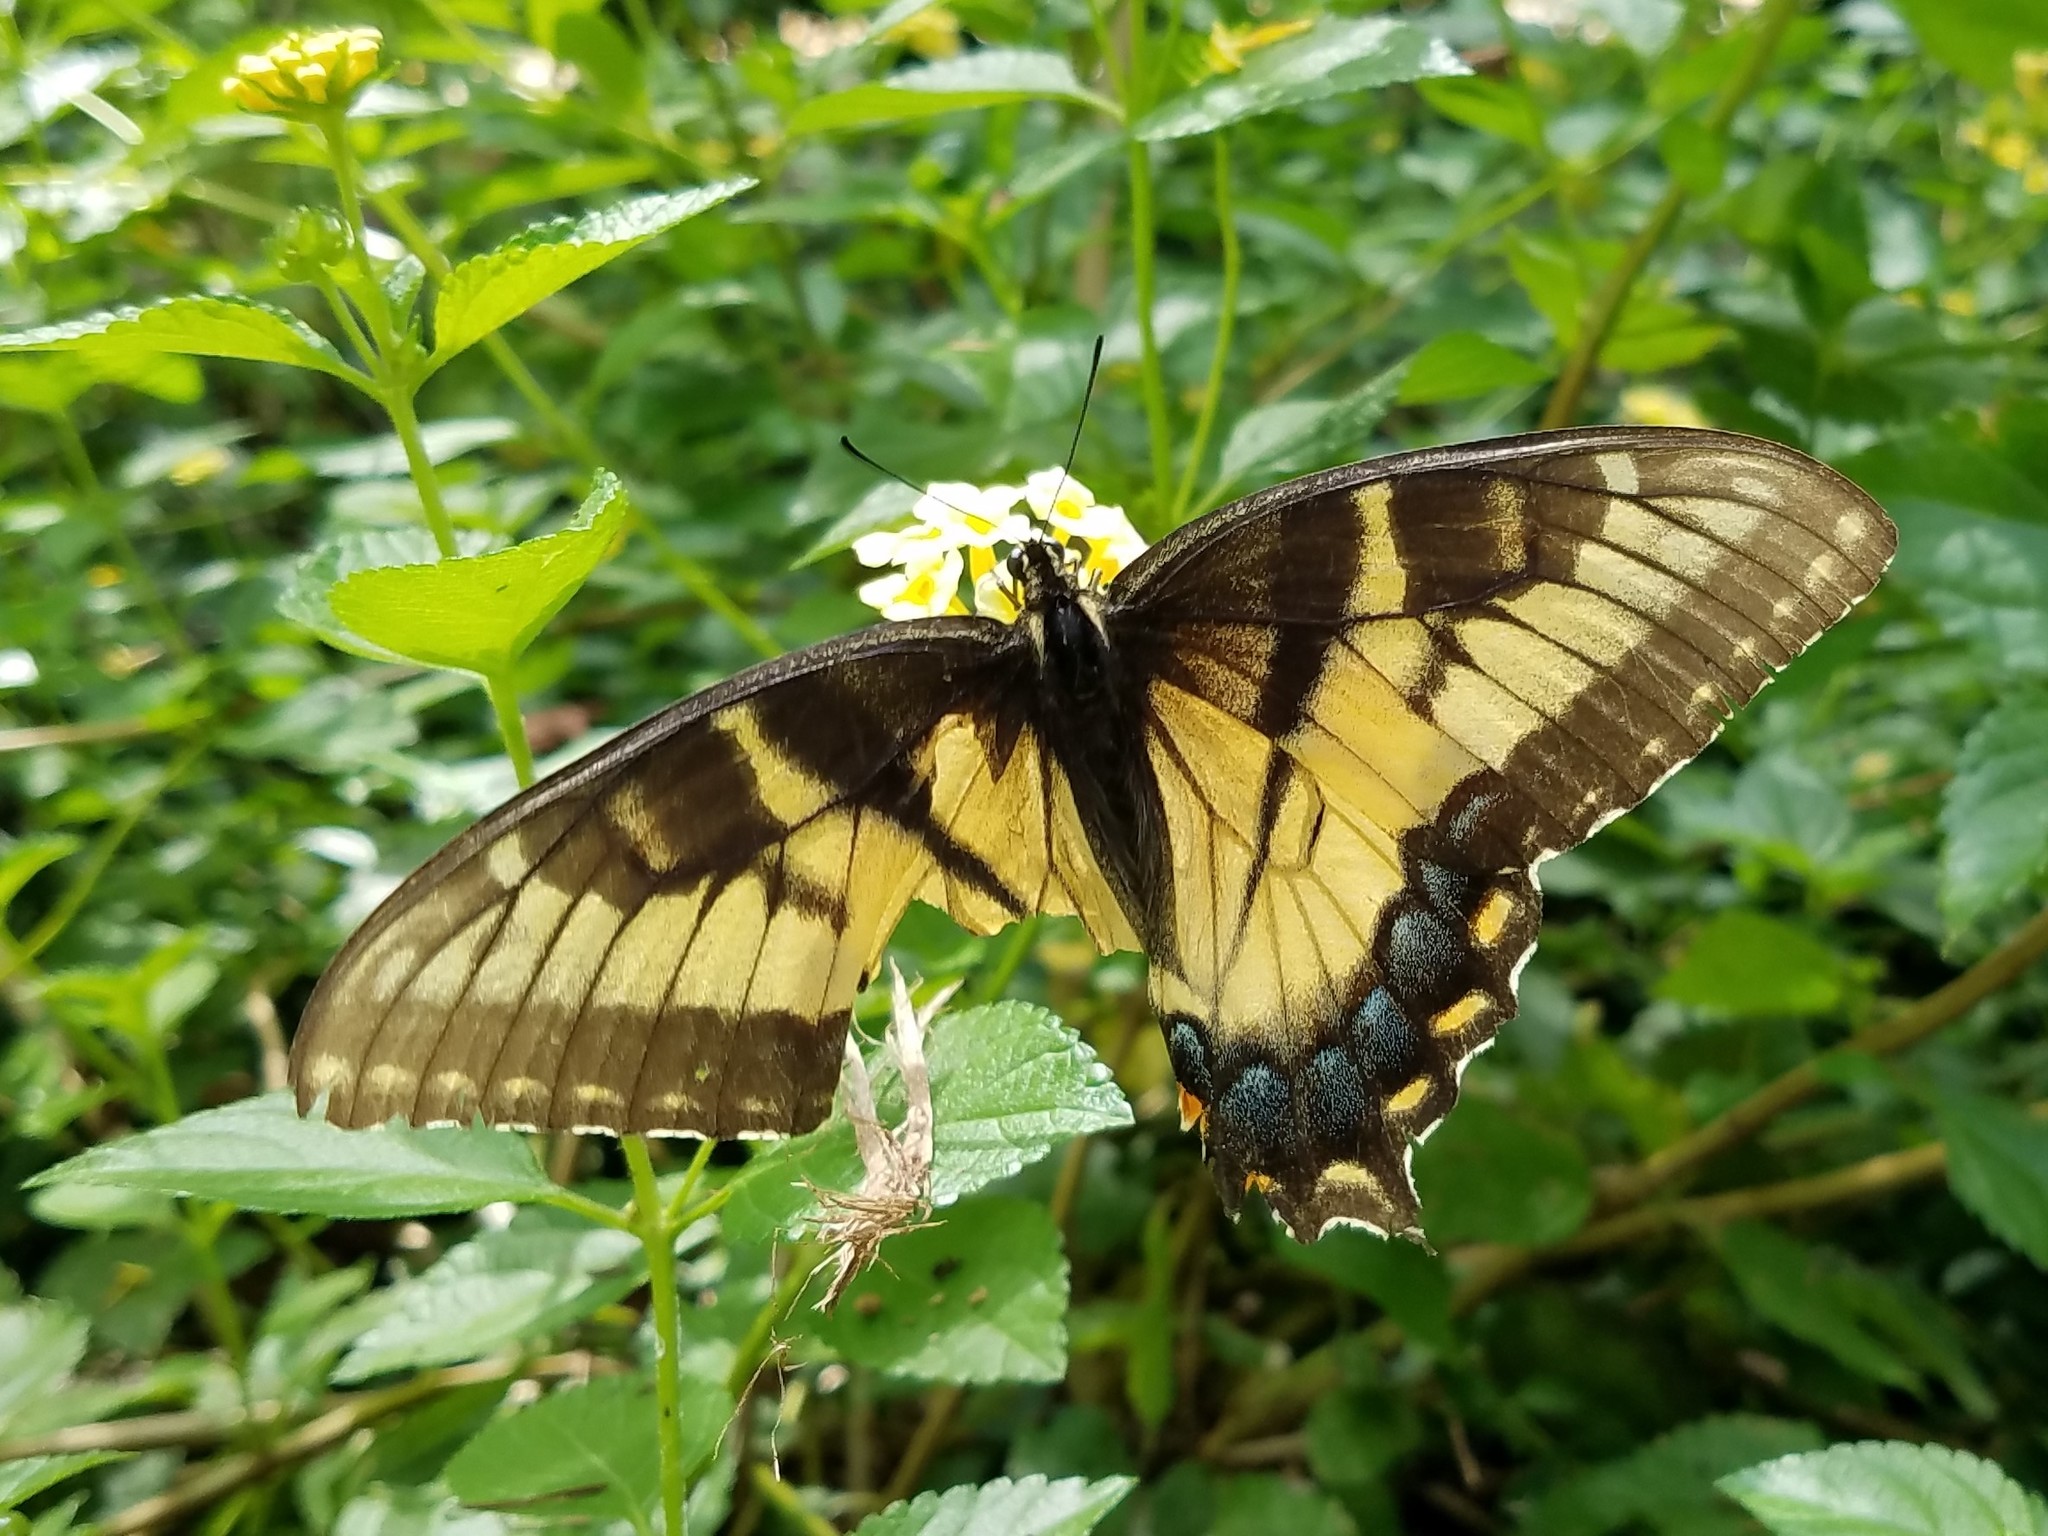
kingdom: Animalia
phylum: Arthropoda
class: Insecta
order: Lepidoptera
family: Papilionidae
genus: Papilio
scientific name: Papilio glaucus
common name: Tiger swallowtail
